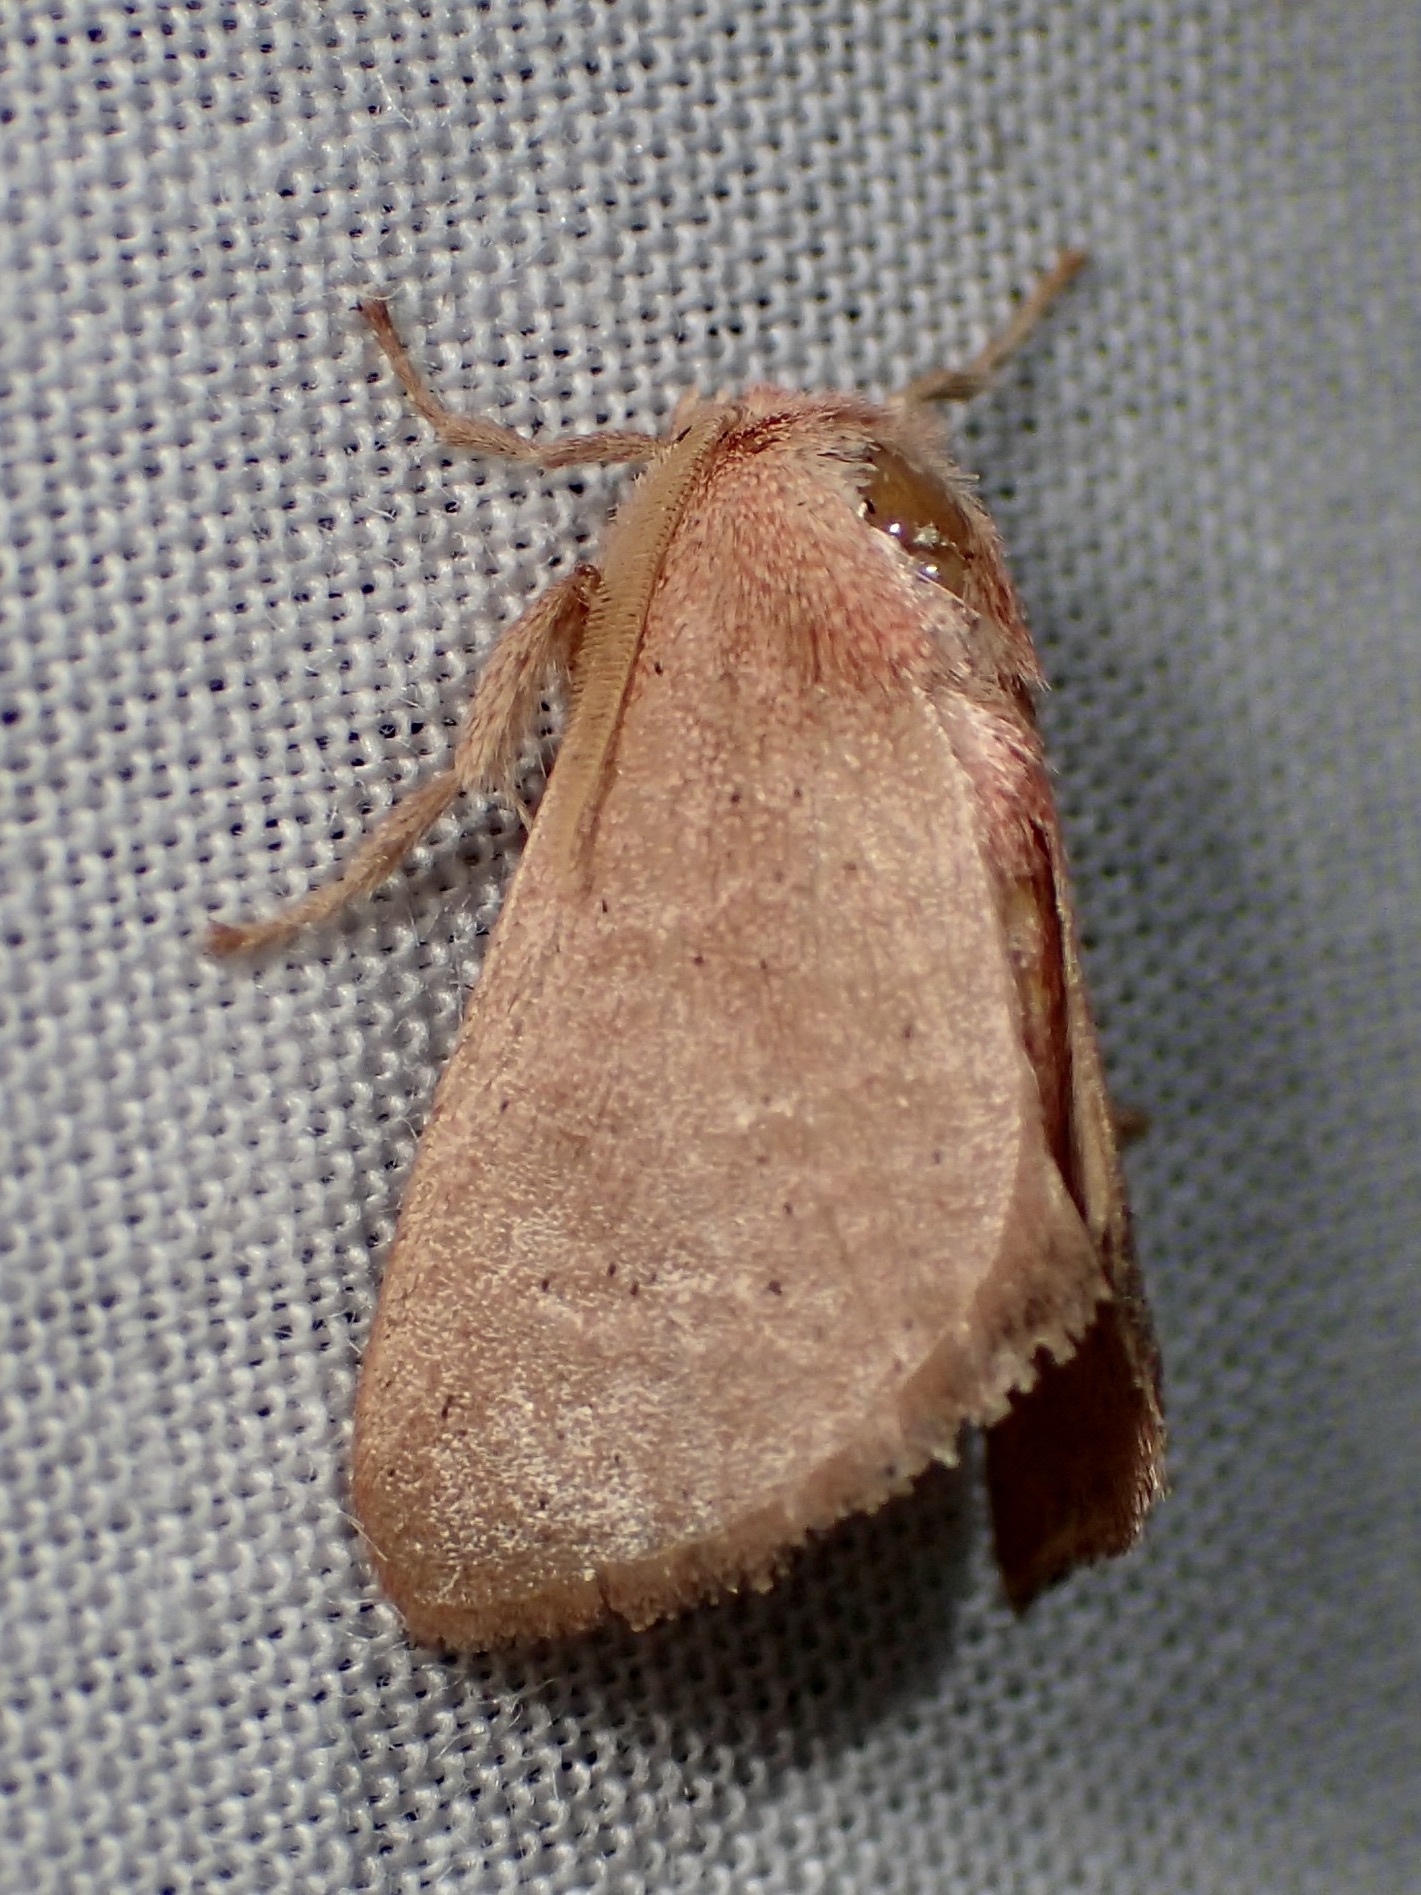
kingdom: Animalia
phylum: Arthropoda
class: Insecta
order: Lepidoptera
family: Limacodidae
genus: Isa
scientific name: Isa schaefferana
